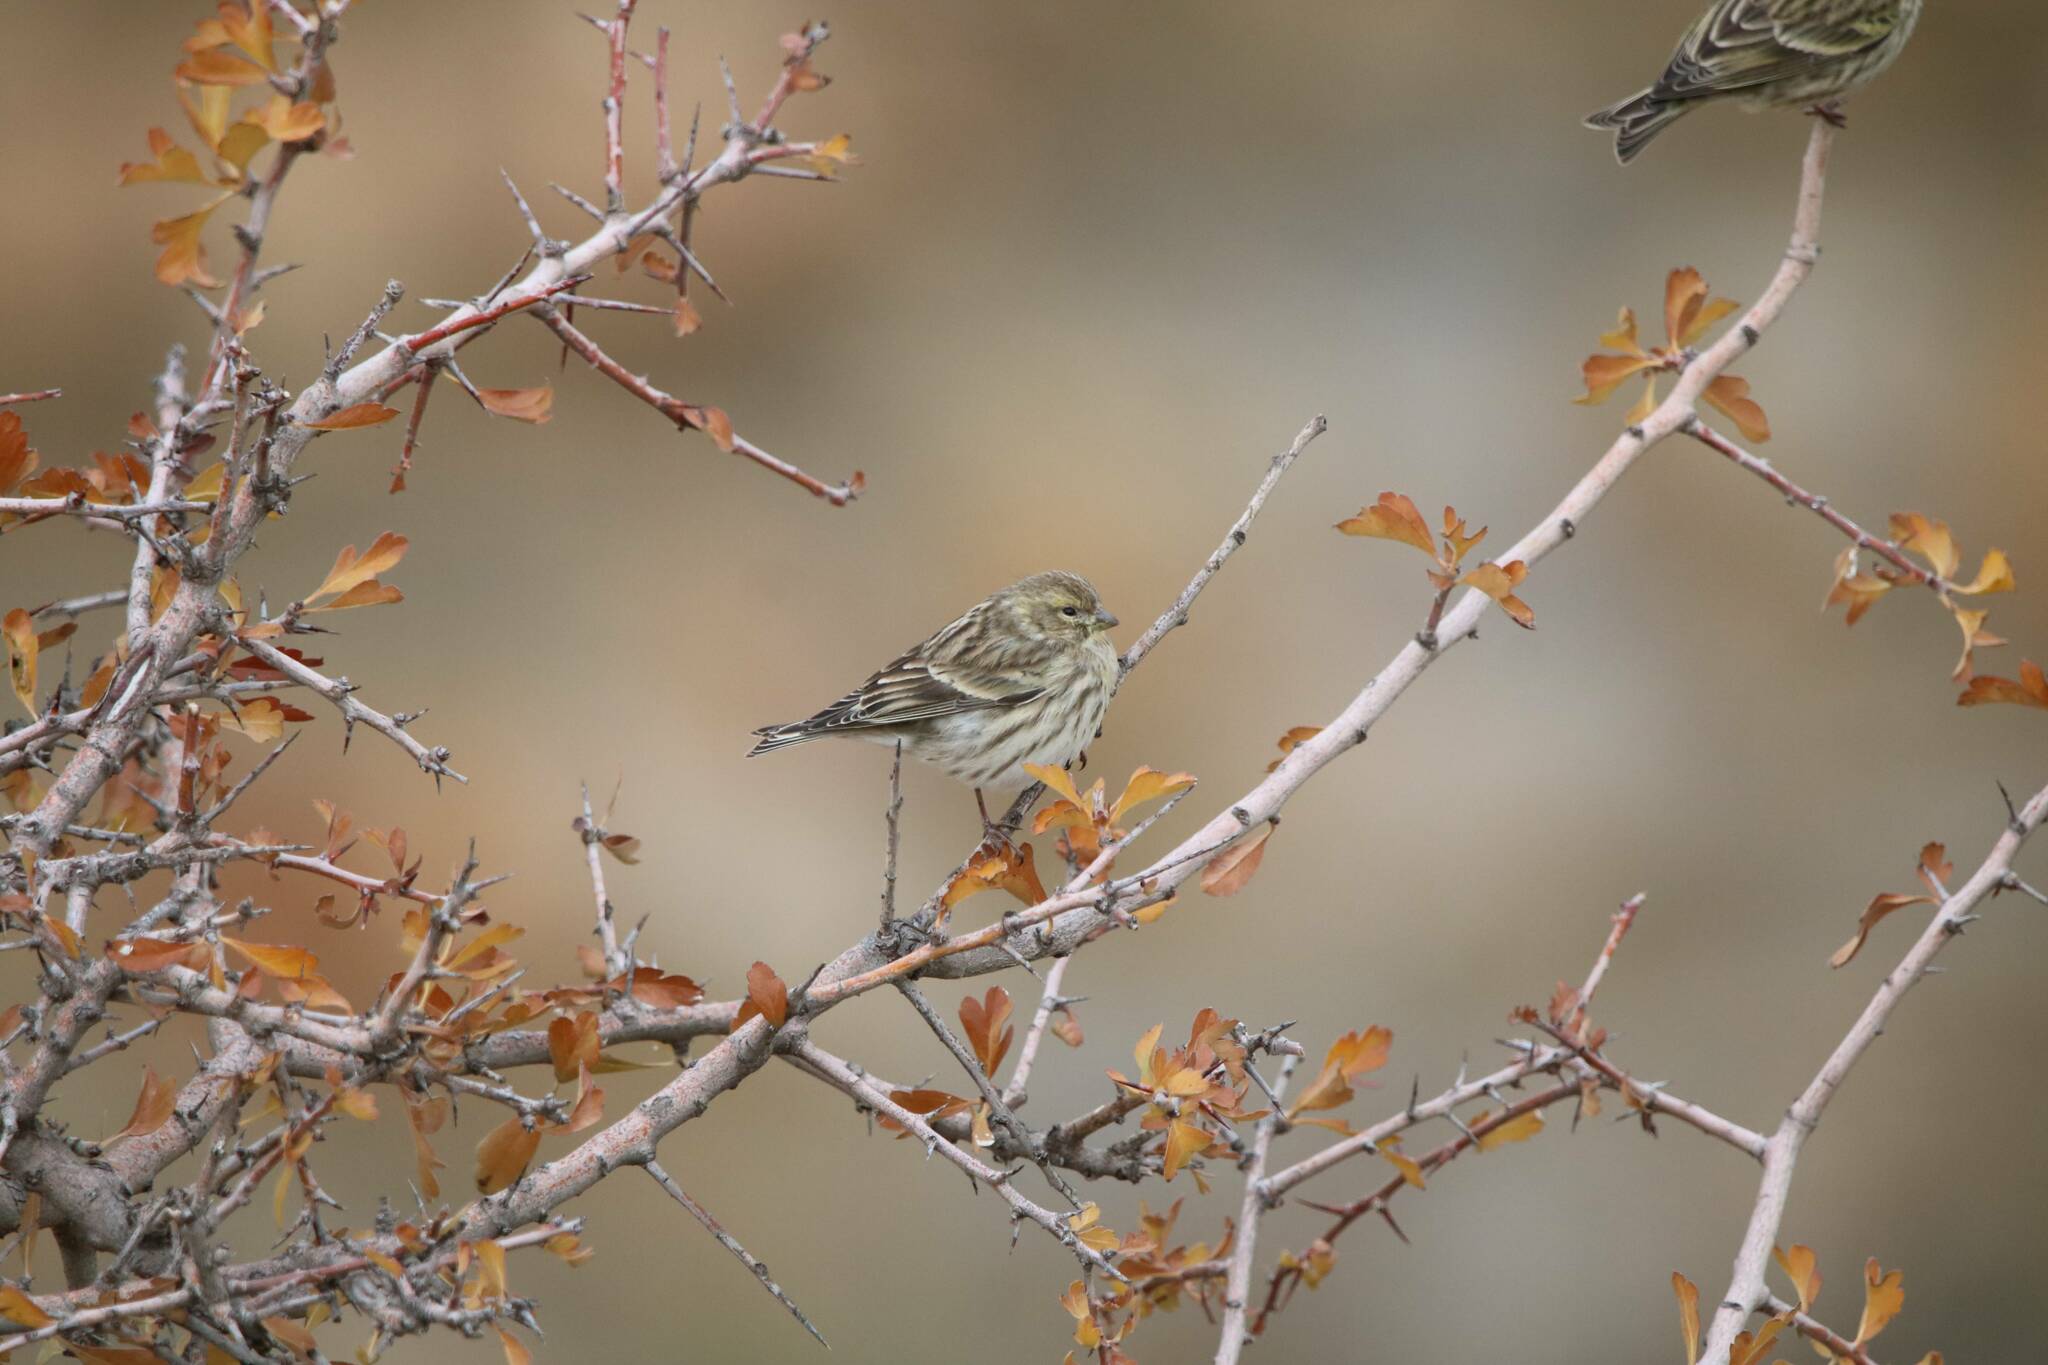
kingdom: Animalia
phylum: Chordata
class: Aves
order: Passeriformes
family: Fringillidae
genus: Serinus
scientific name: Serinus serinus
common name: European serin
